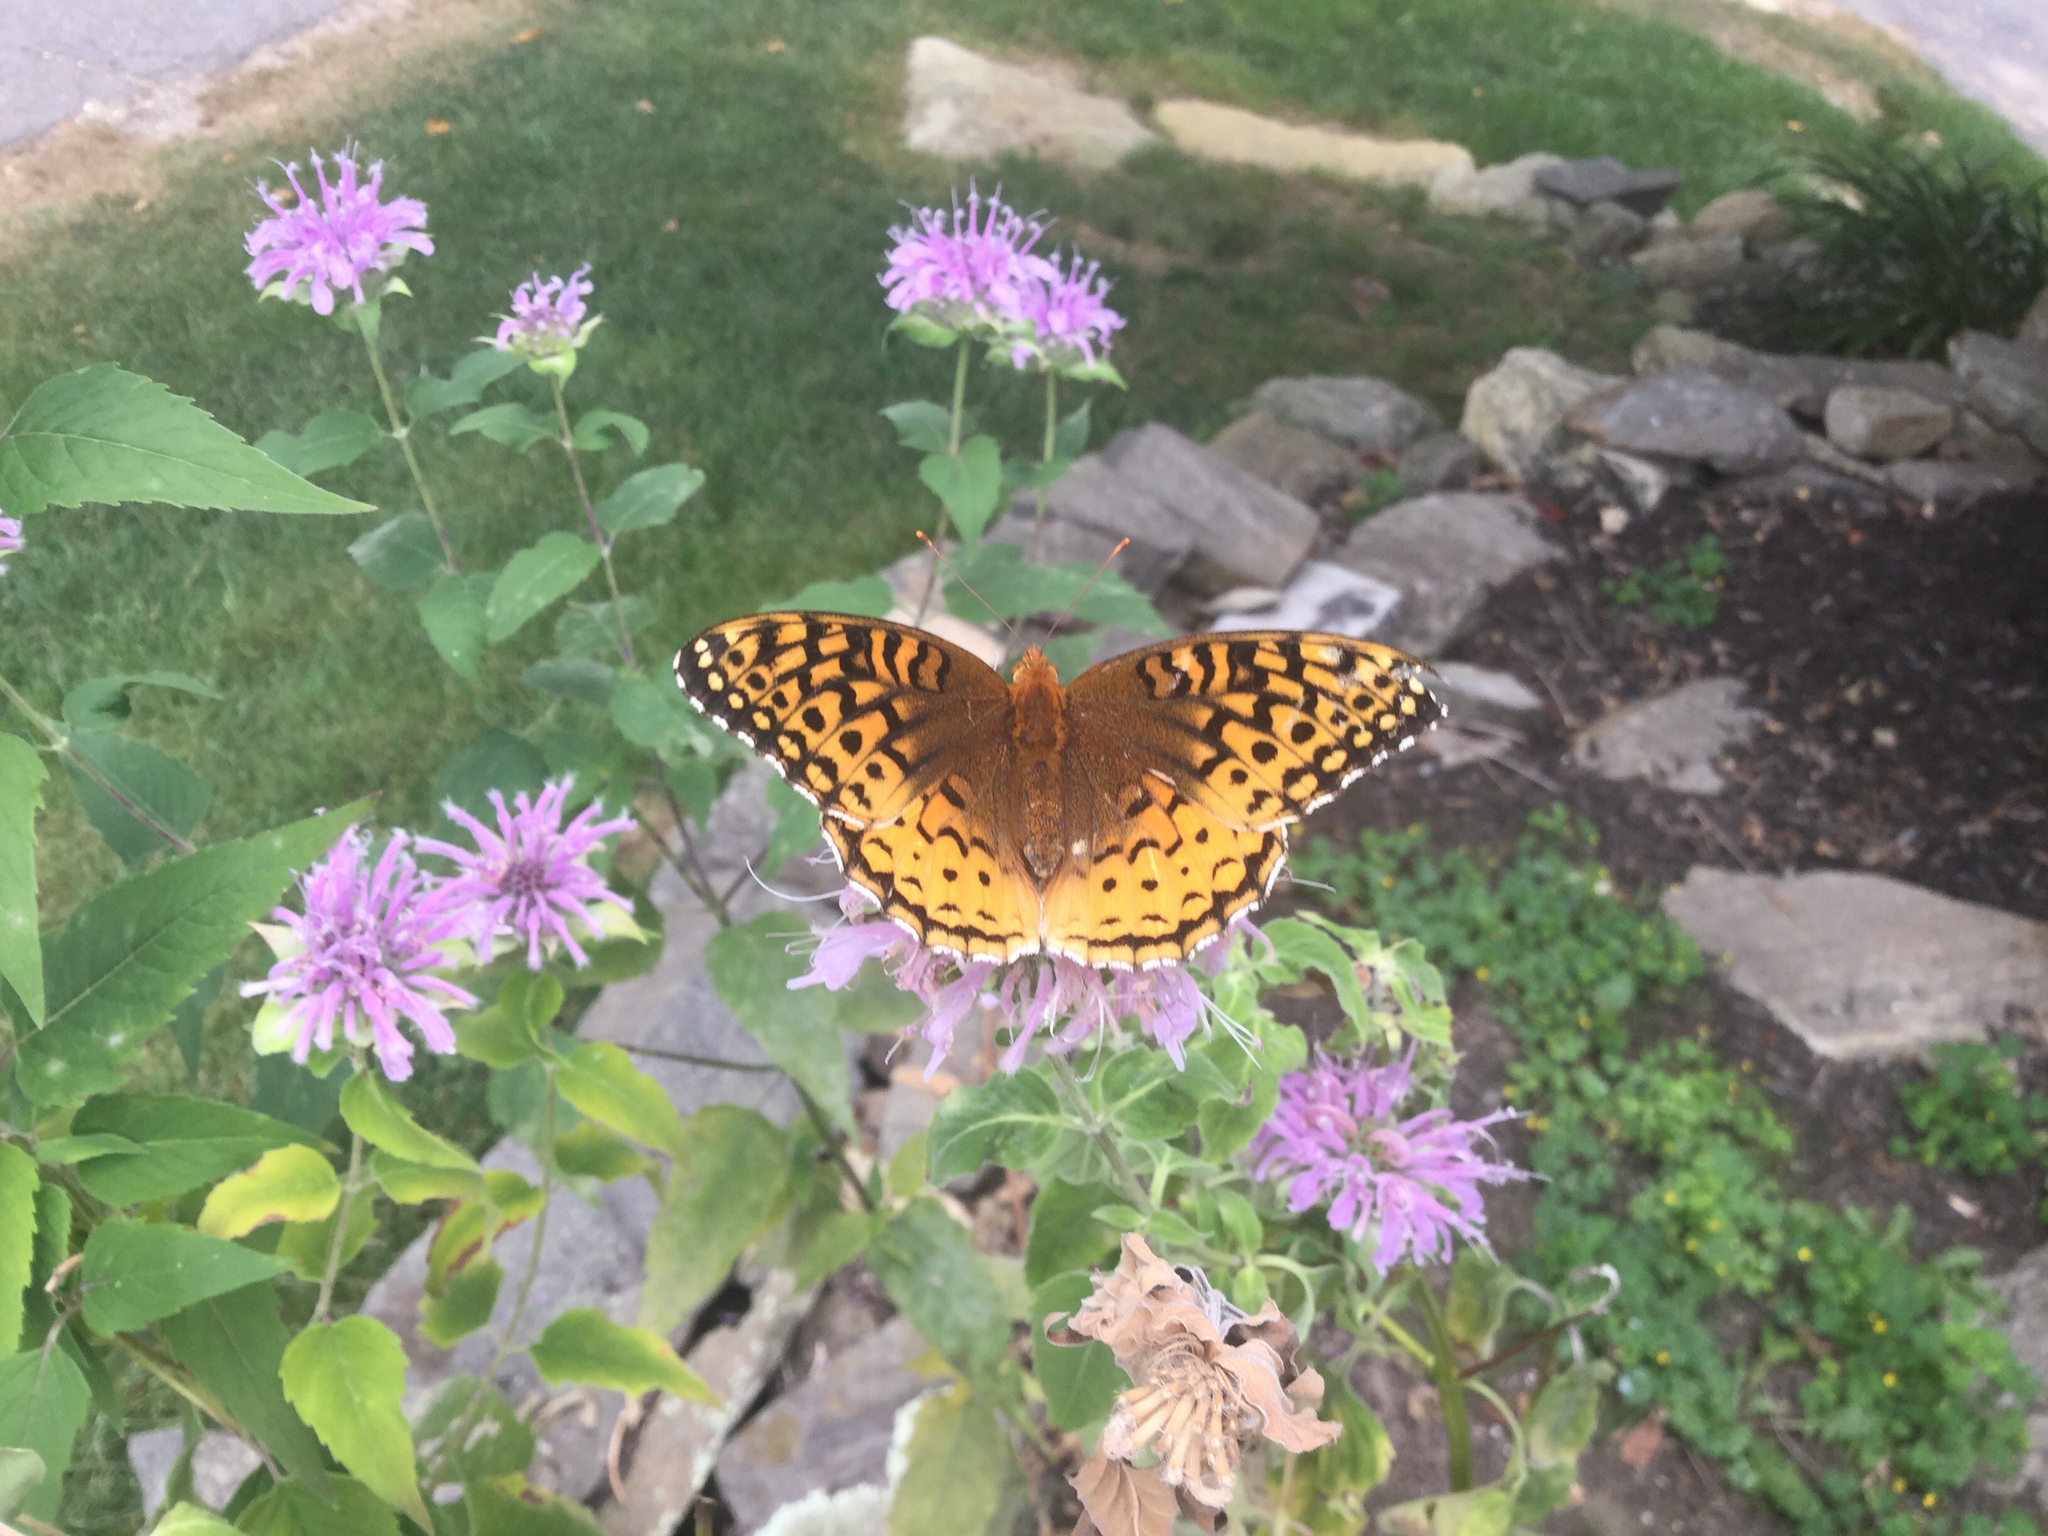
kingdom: Animalia
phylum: Arthropoda
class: Insecta
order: Lepidoptera
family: Nymphalidae
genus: Speyeria
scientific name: Speyeria cybele
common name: Great spangled fritillary
